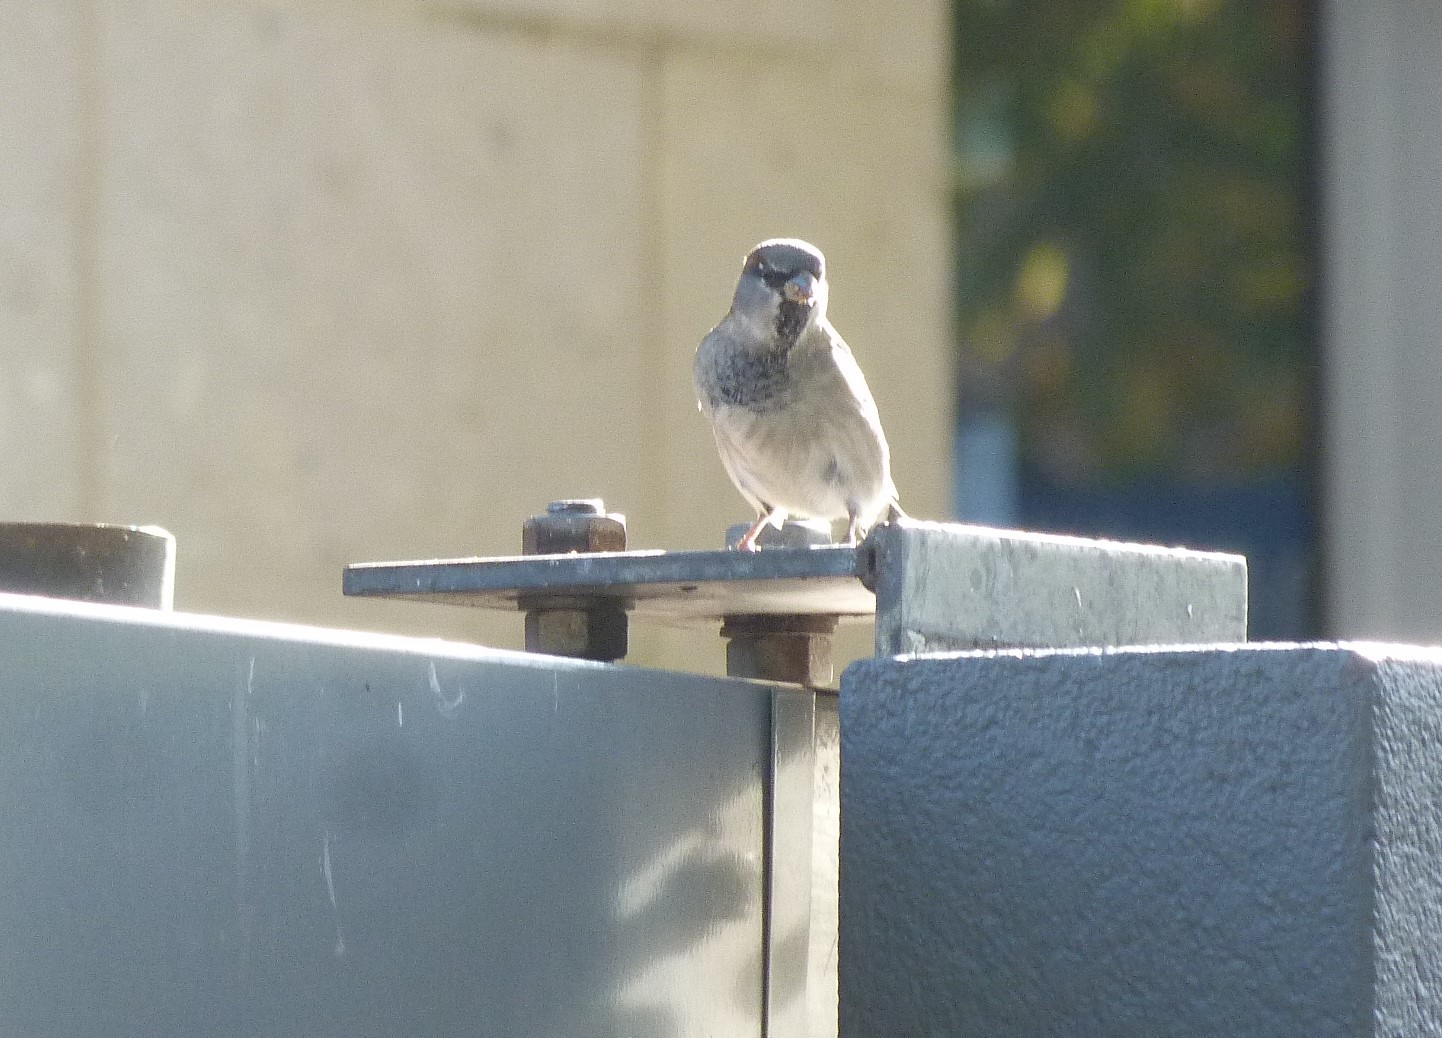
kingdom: Animalia
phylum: Chordata
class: Aves
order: Passeriformes
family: Passeridae
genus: Passer
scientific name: Passer domesticus
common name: House sparrow
